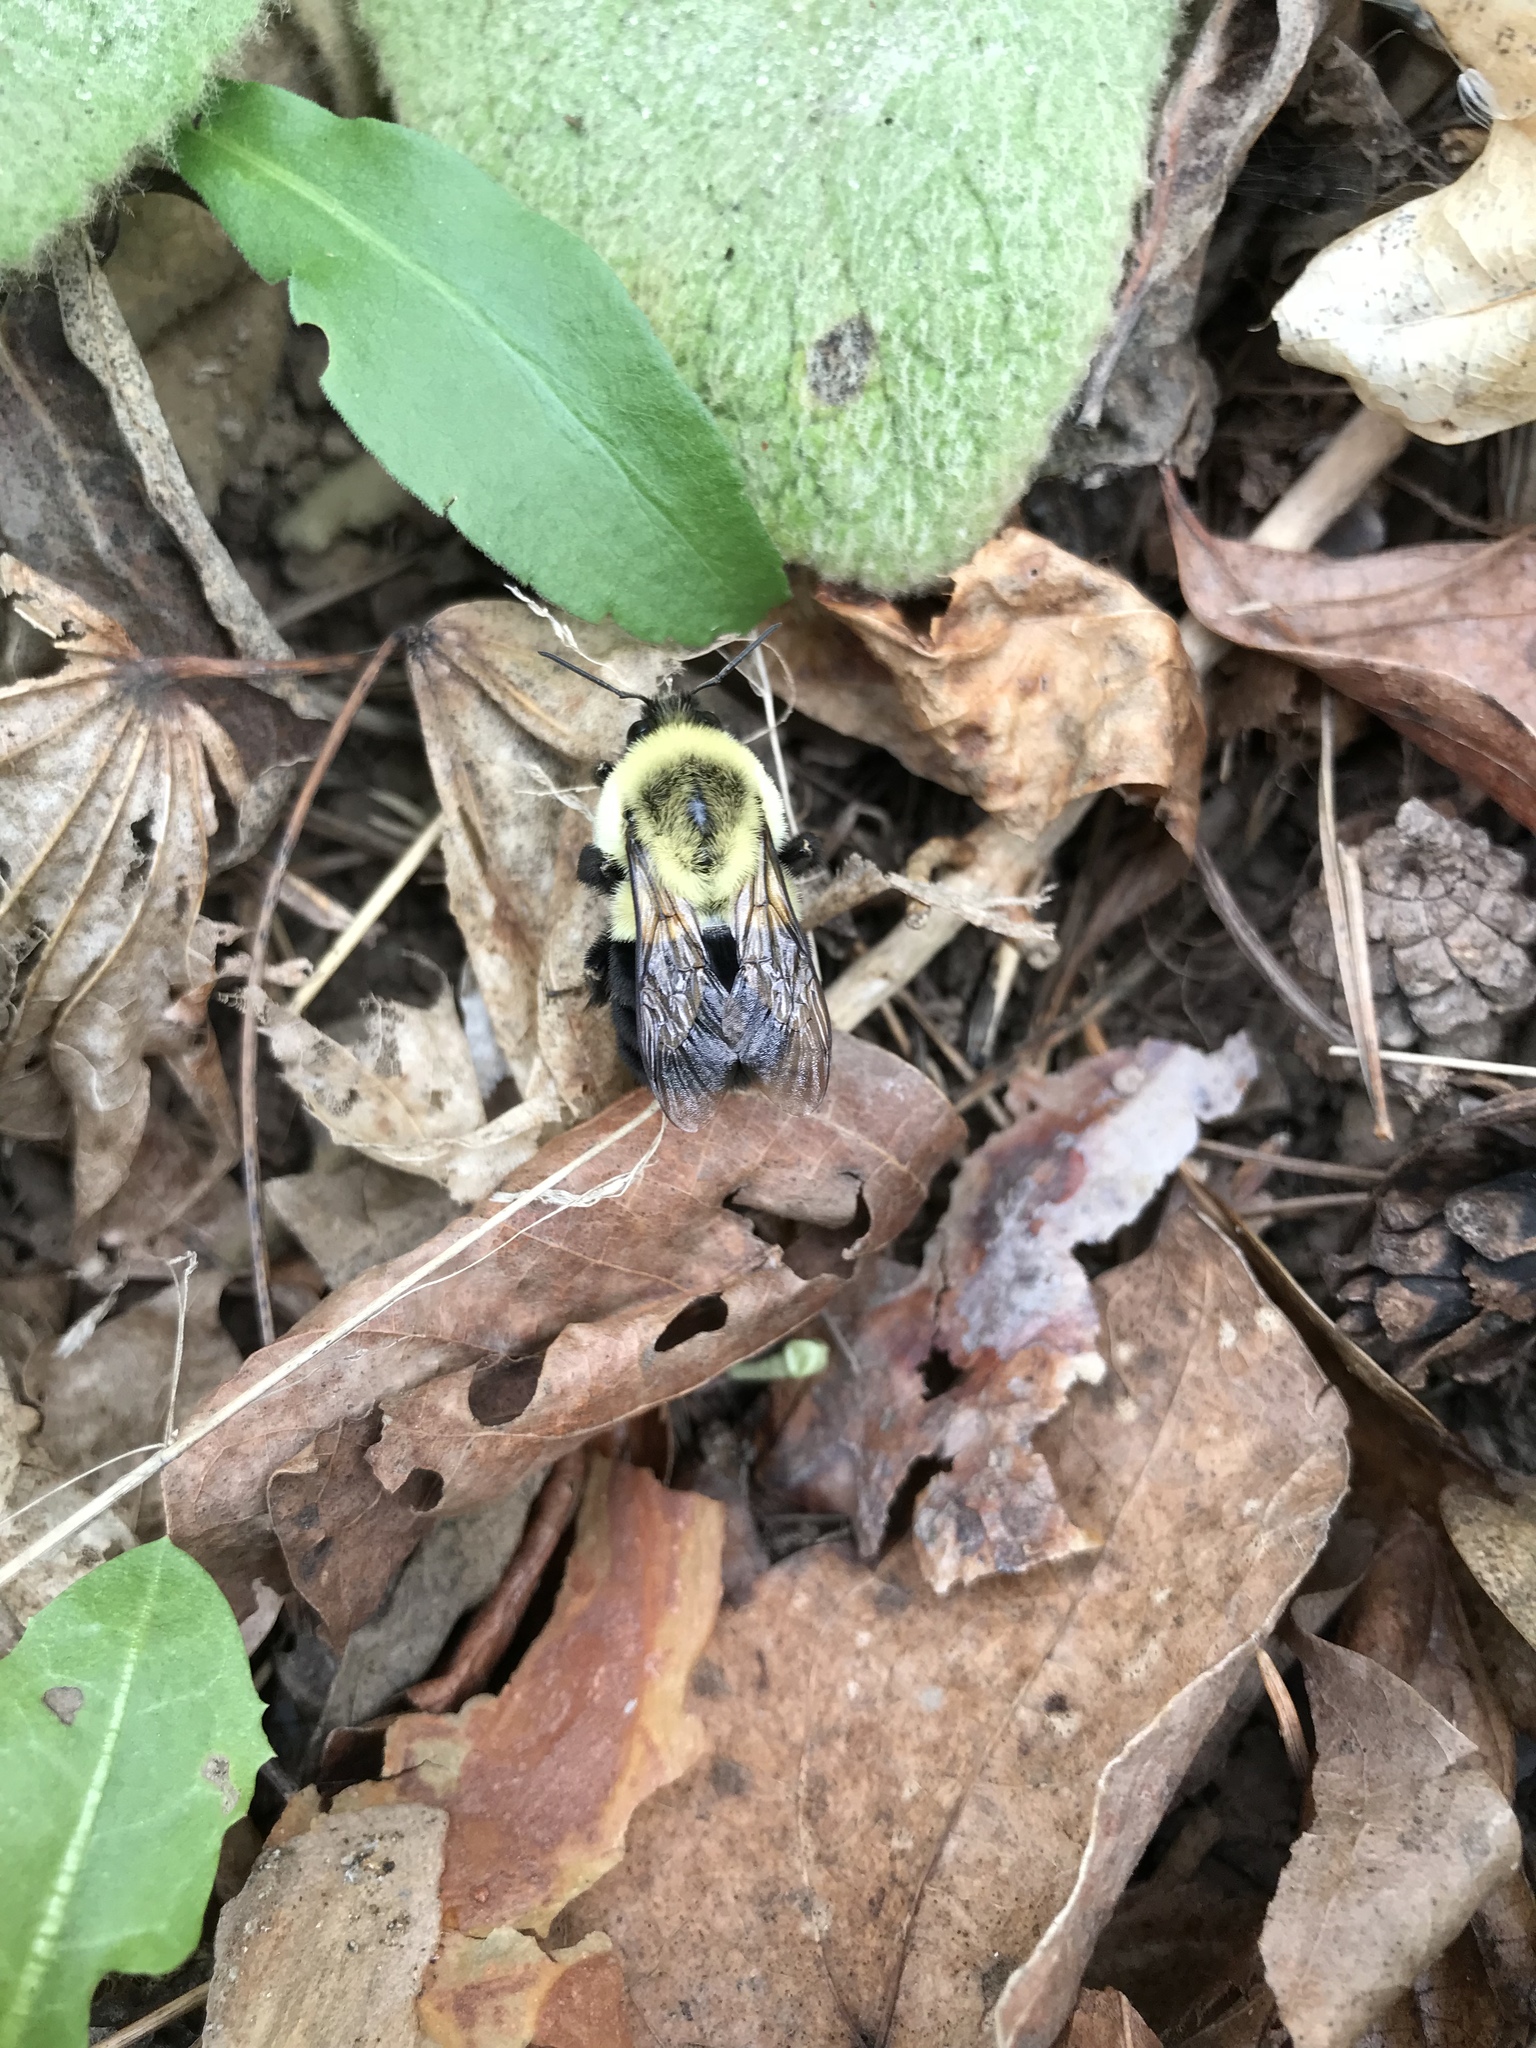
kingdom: Animalia
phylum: Arthropoda
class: Insecta
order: Hymenoptera
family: Apidae
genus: Bombus
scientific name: Bombus impatiens
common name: Common eastern bumble bee
